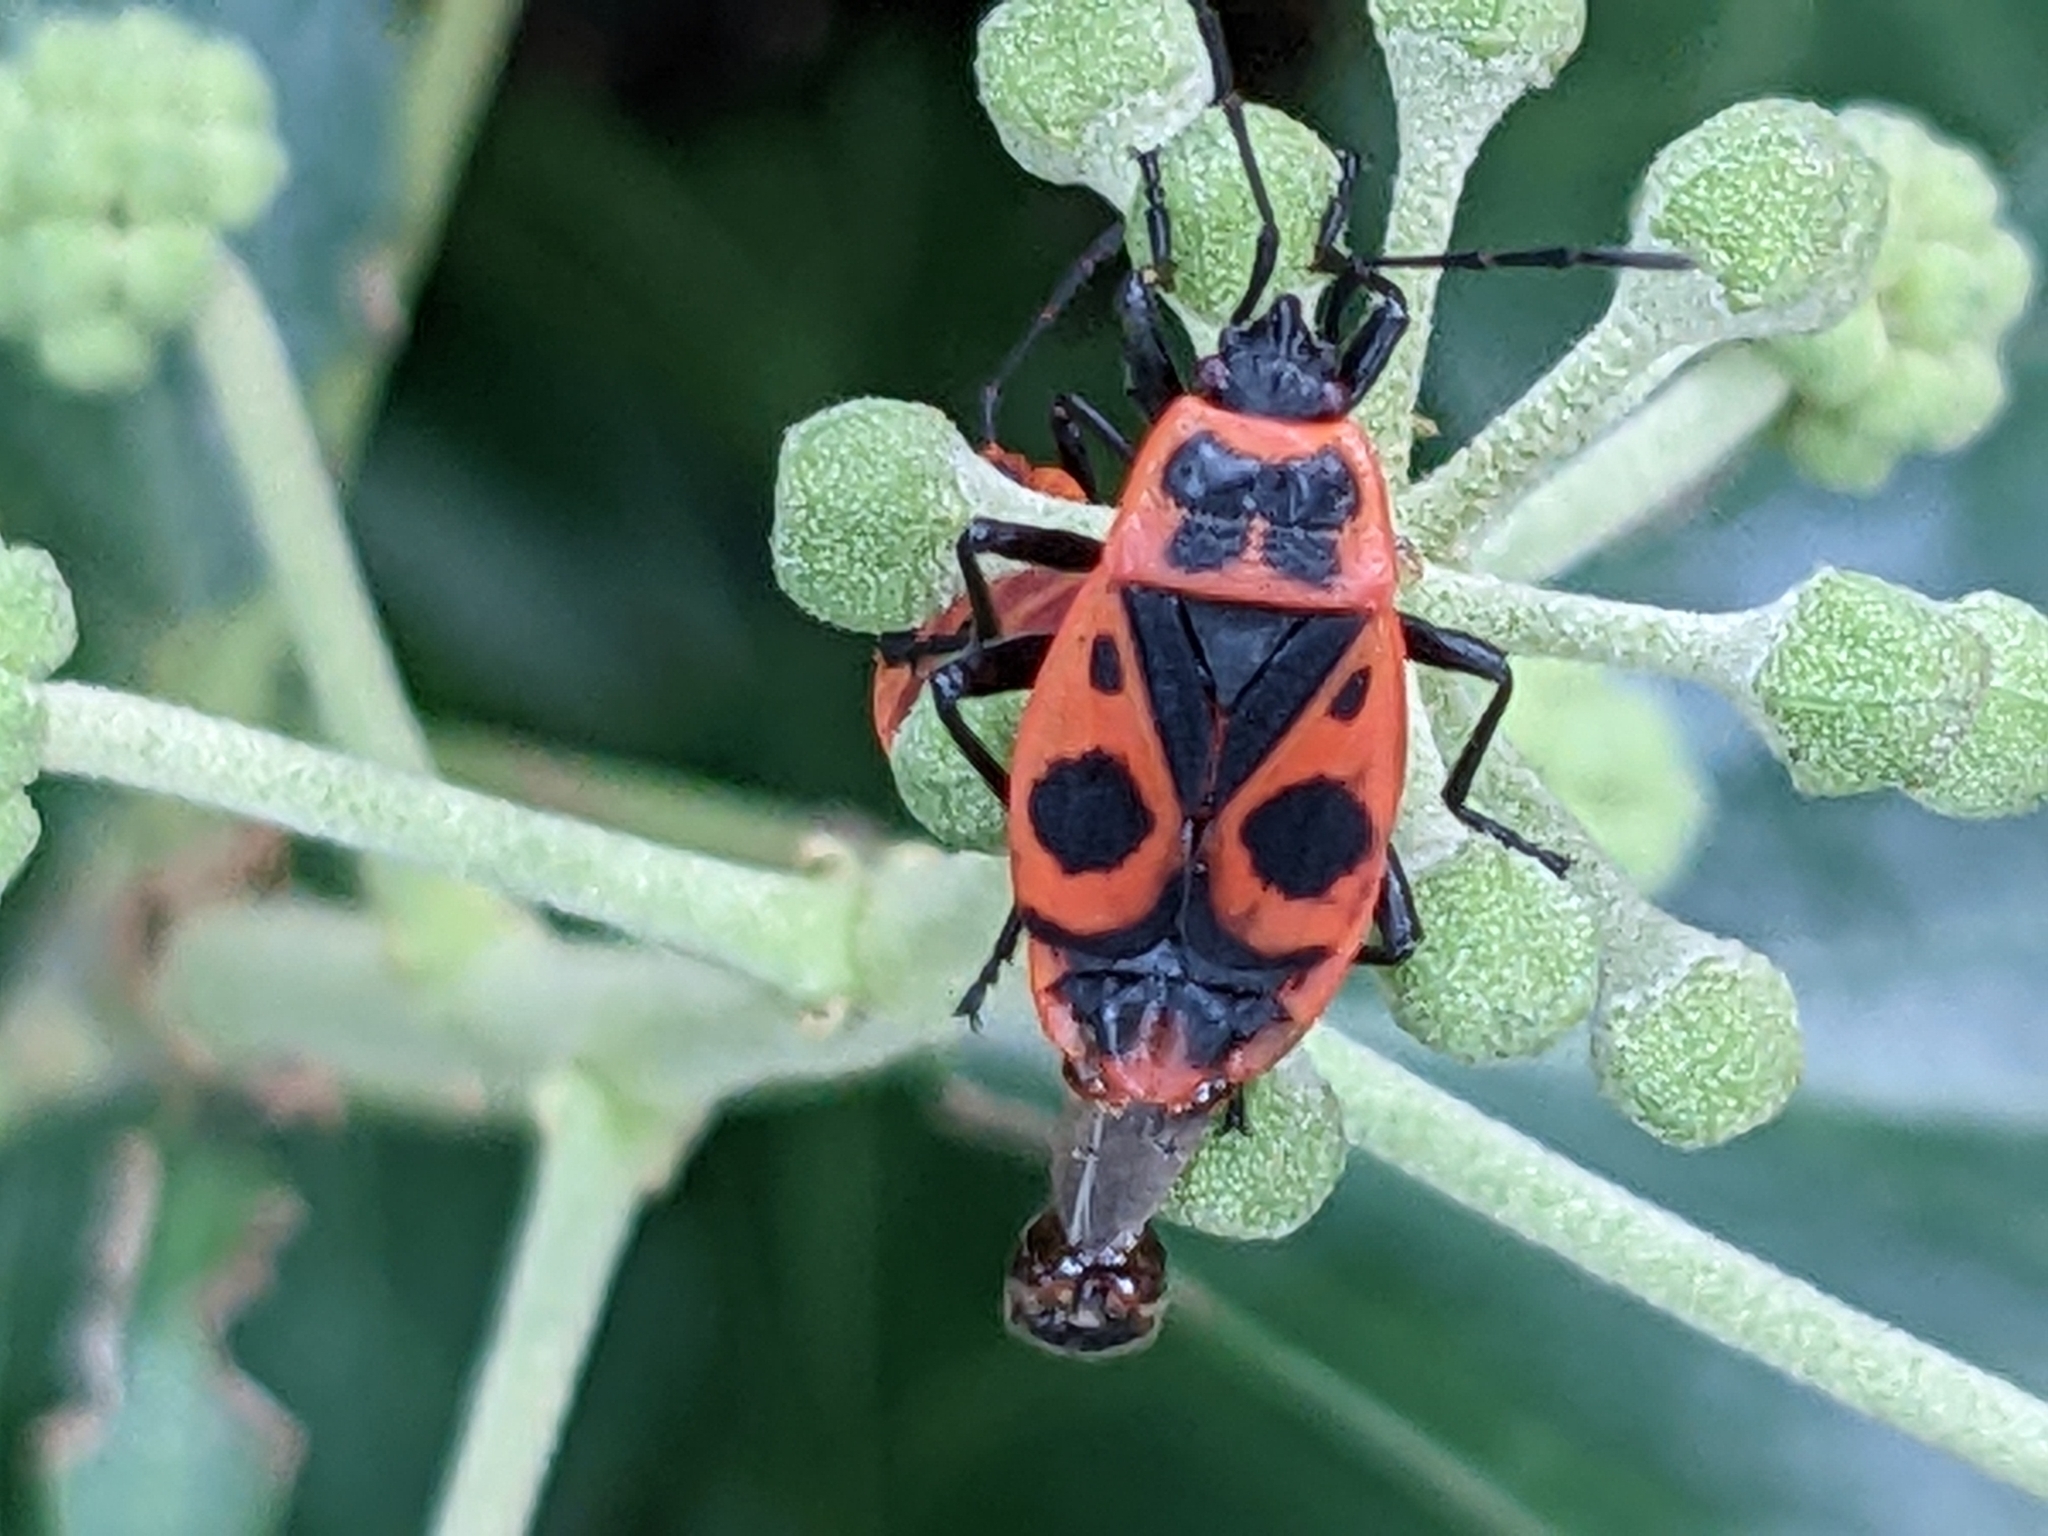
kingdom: Animalia
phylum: Arthropoda
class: Insecta
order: Hemiptera
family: Pyrrhocoridae
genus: Pyrrhocoris
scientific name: Pyrrhocoris apterus
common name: Firebug
